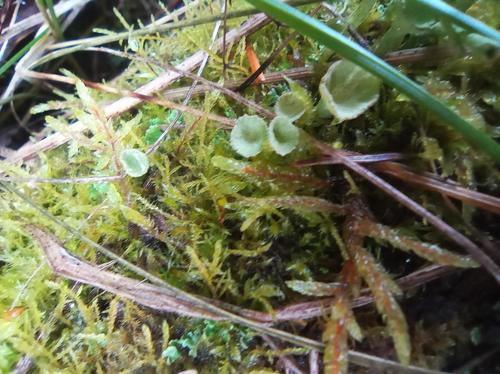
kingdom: Fungi
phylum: Ascomycota
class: Lecanoromycetes
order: Lecanorales
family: Cladoniaceae
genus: Cladonia
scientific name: Cladonia
